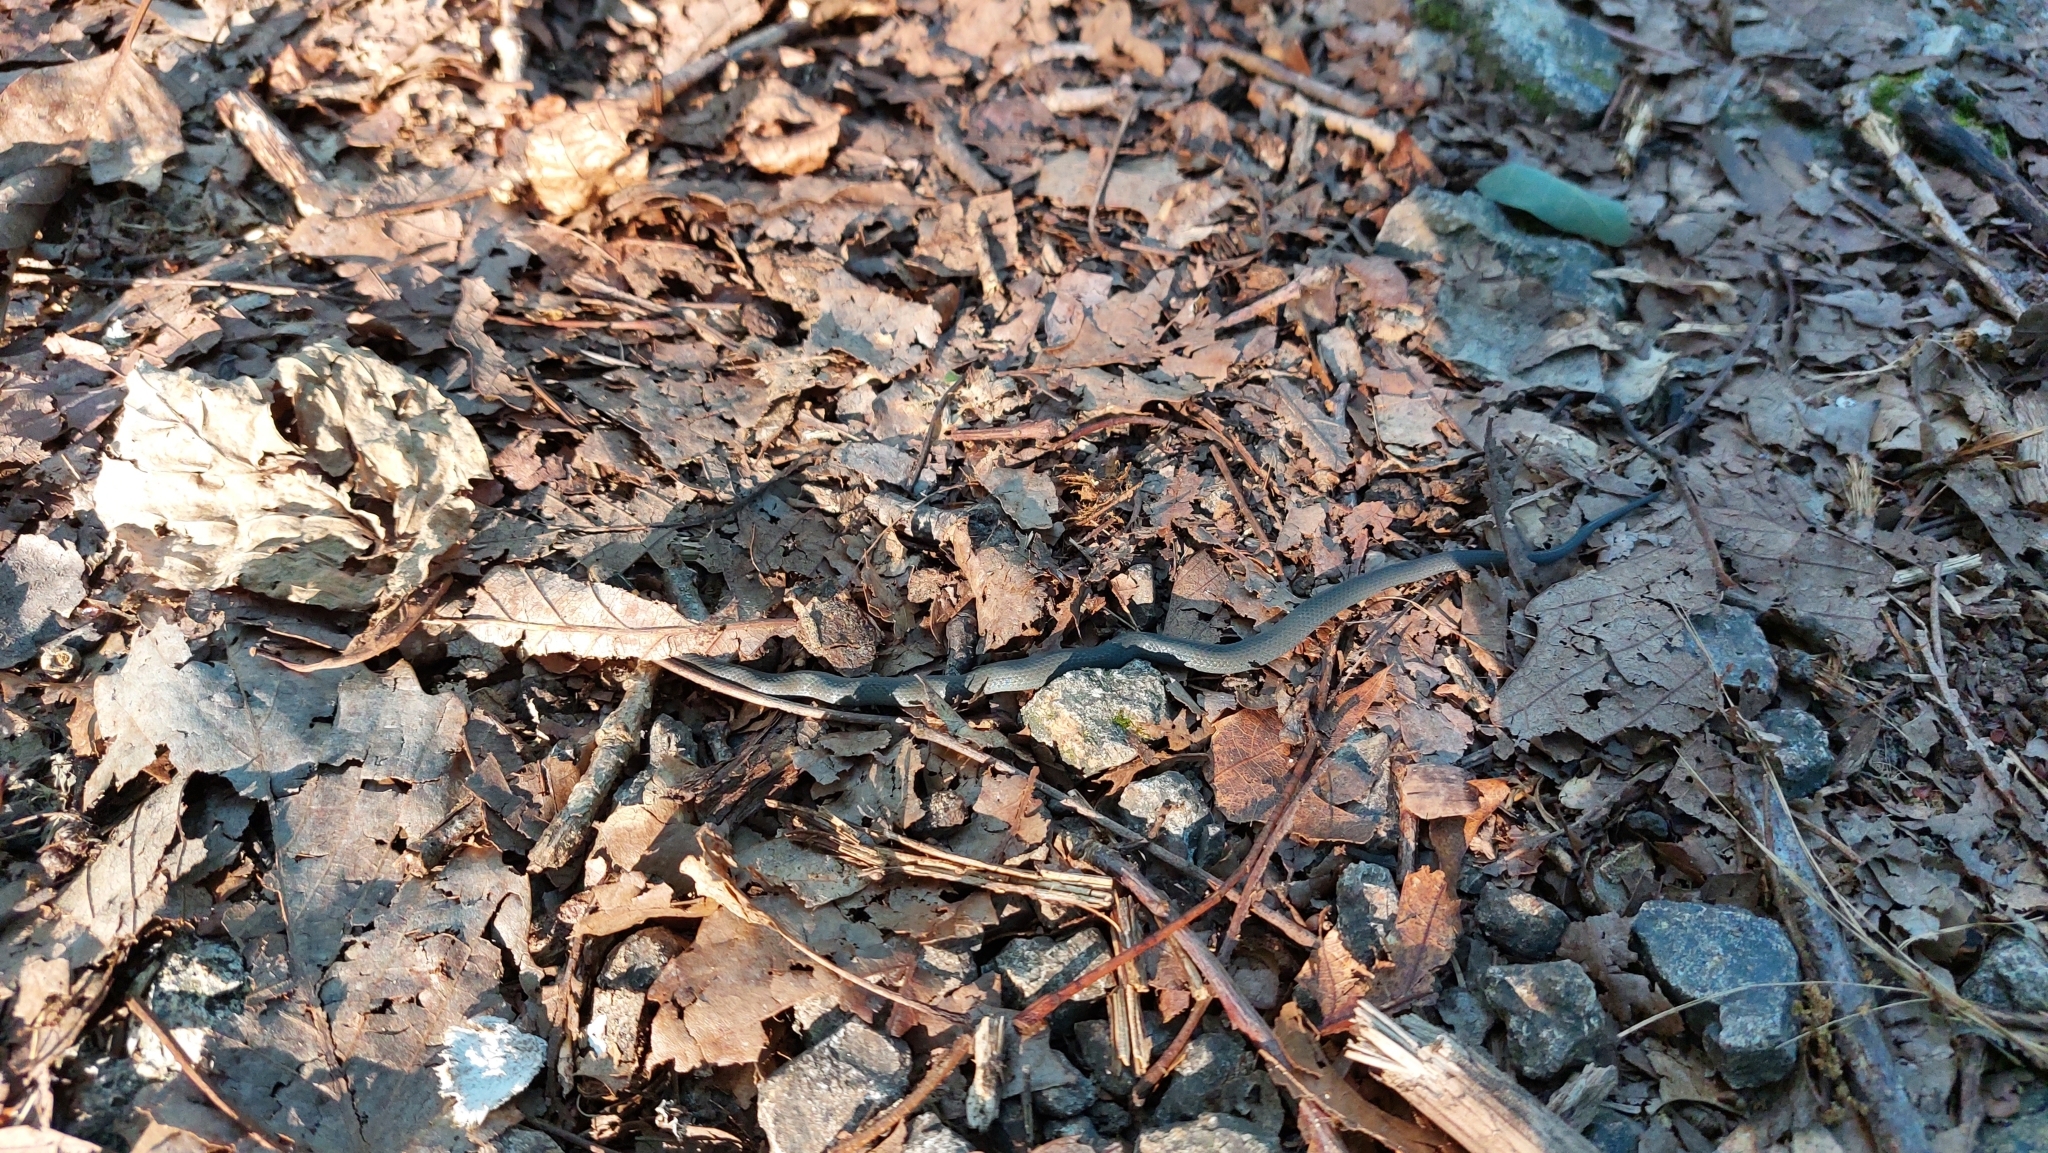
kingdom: Animalia
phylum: Chordata
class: Squamata
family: Colubridae
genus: Diadophis
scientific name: Diadophis punctatus
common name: Ringneck snake
